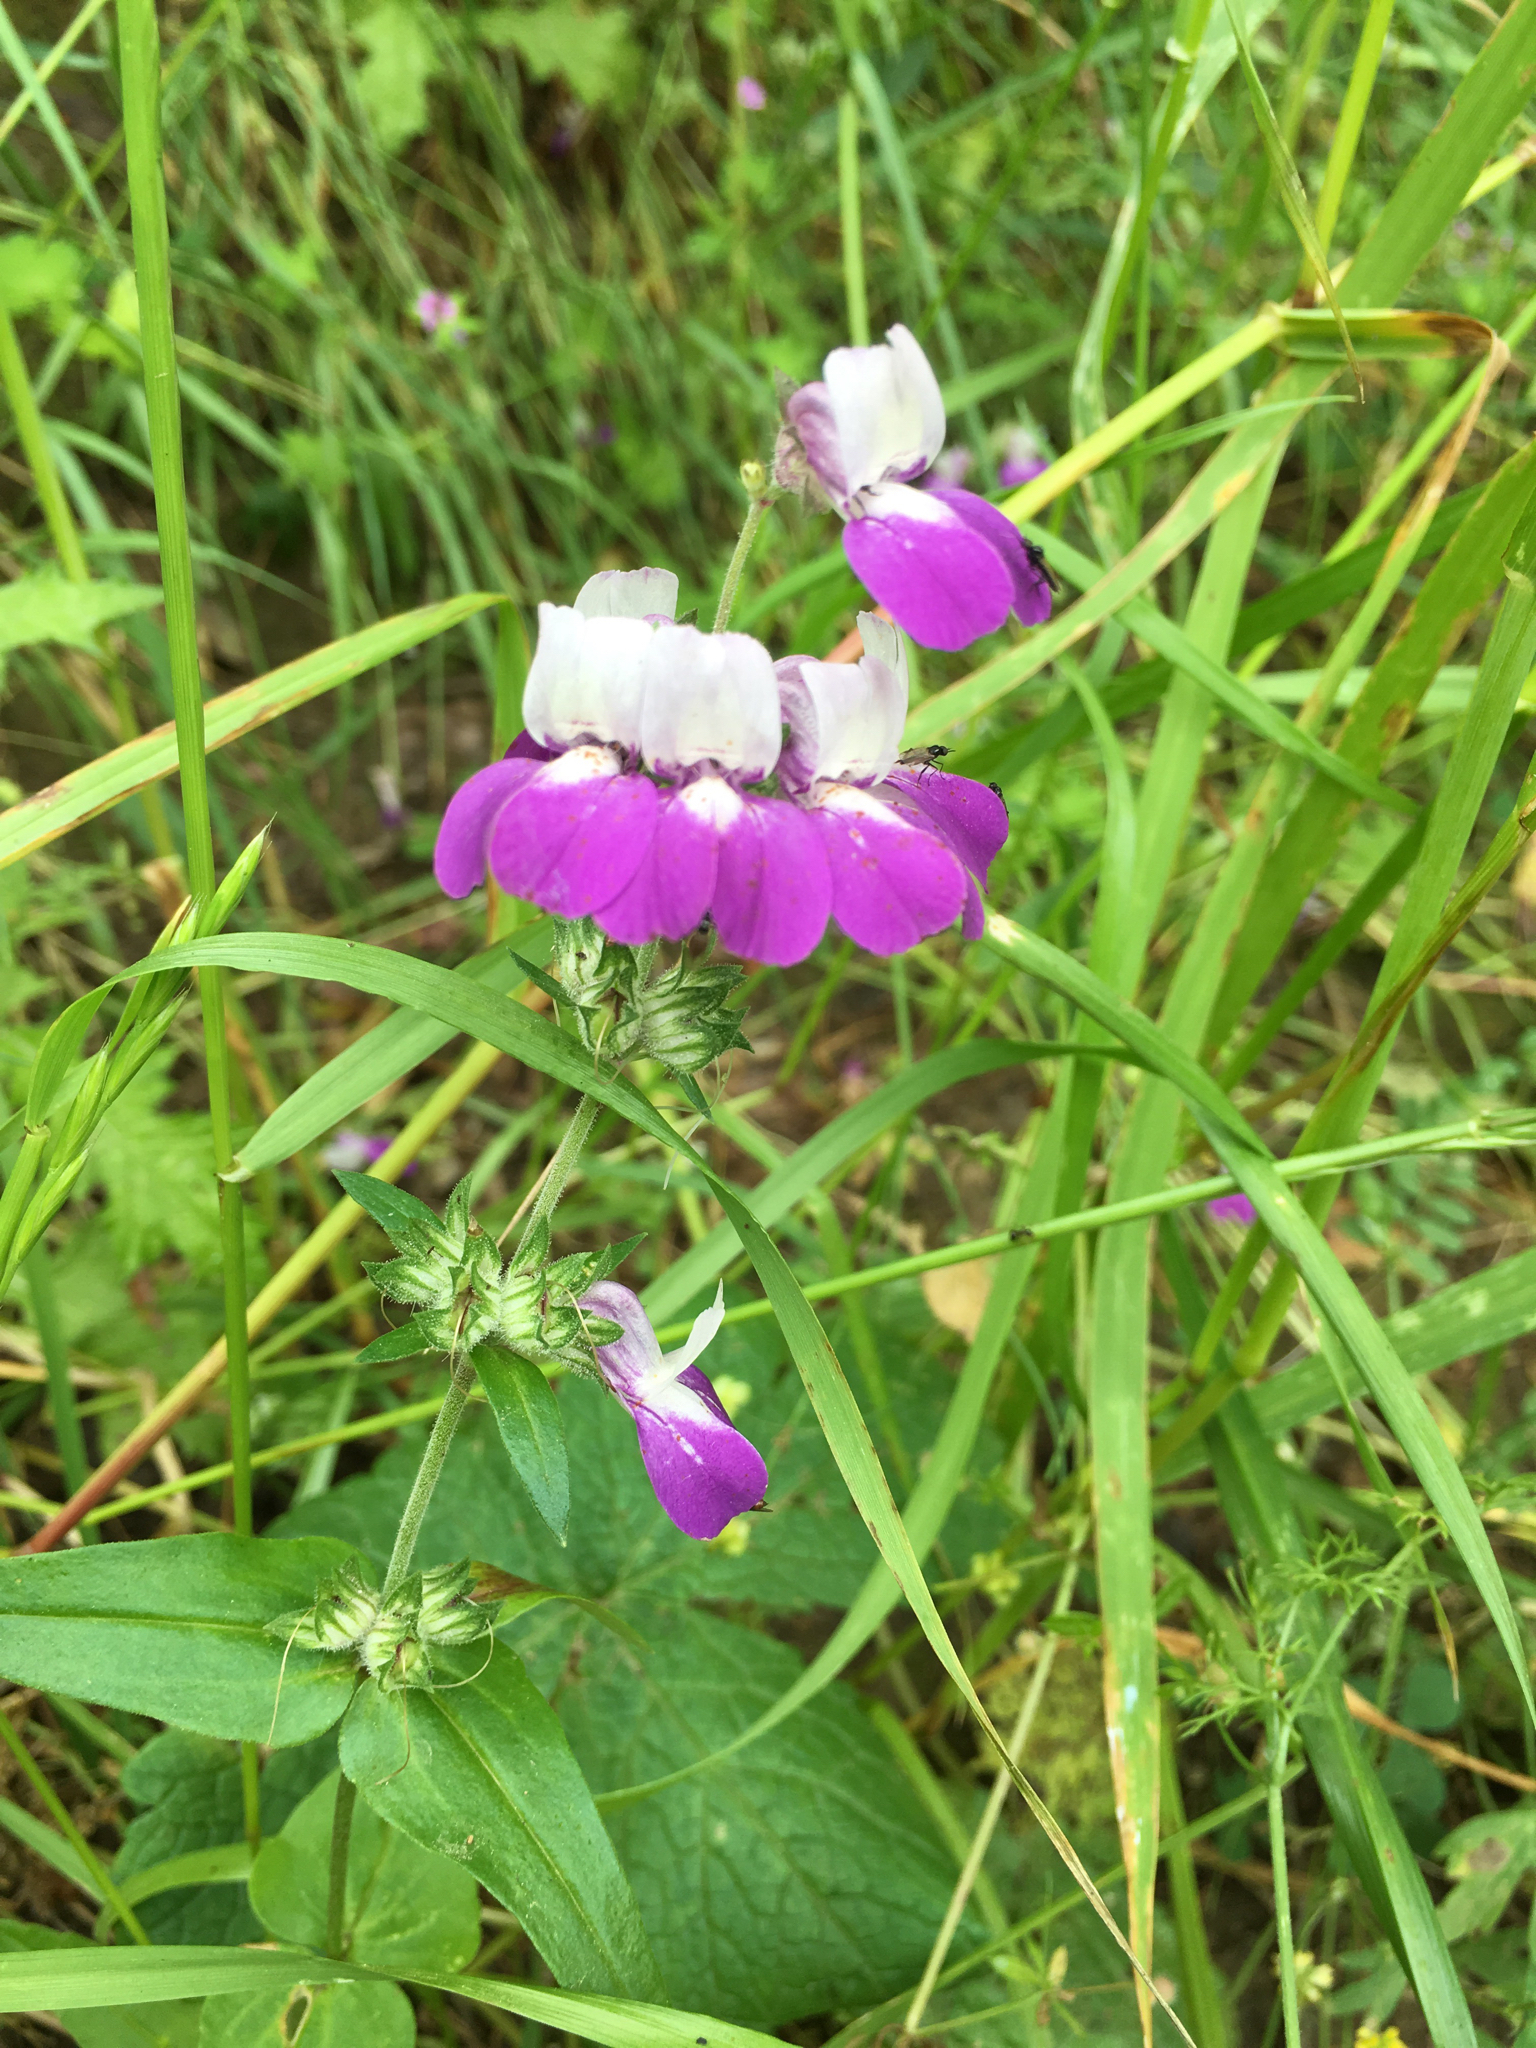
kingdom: Plantae
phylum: Tracheophyta
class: Magnoliopsida
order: Lamiales
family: Plantaginaceae
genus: Collinsia
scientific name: Collinsia heterophylla
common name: Chinese-houses
